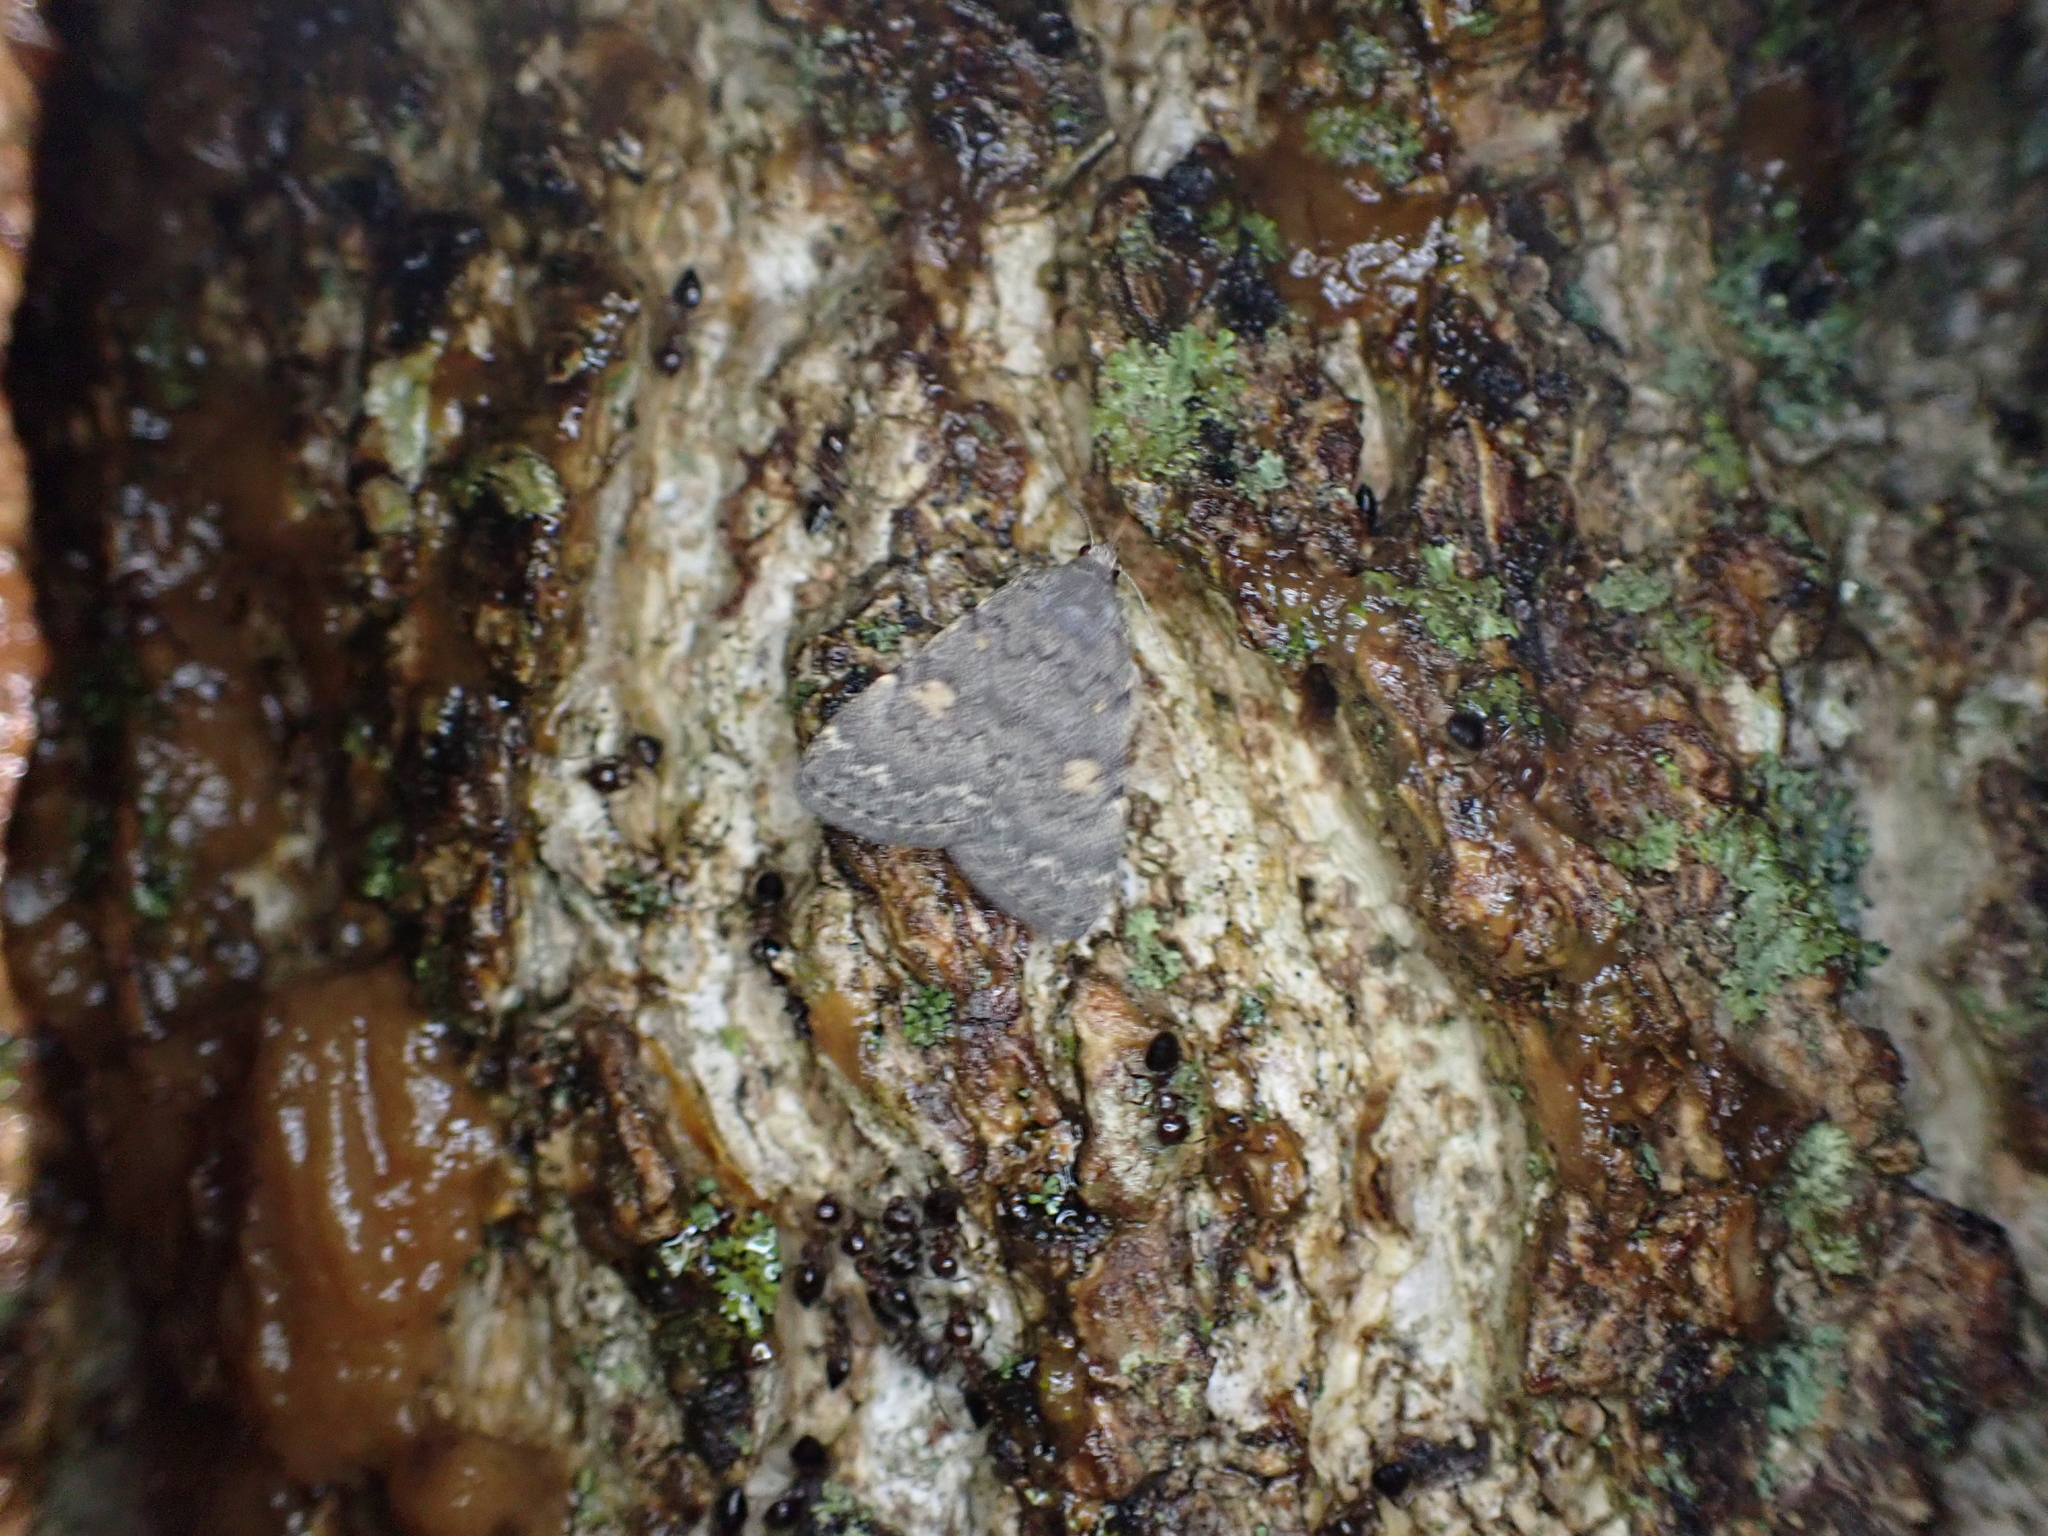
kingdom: Animalia
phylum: Arthropoda
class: Insecta
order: Lepidoptera
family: Erebidae
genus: Idia
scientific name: Idia aemula
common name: Common idia moth
